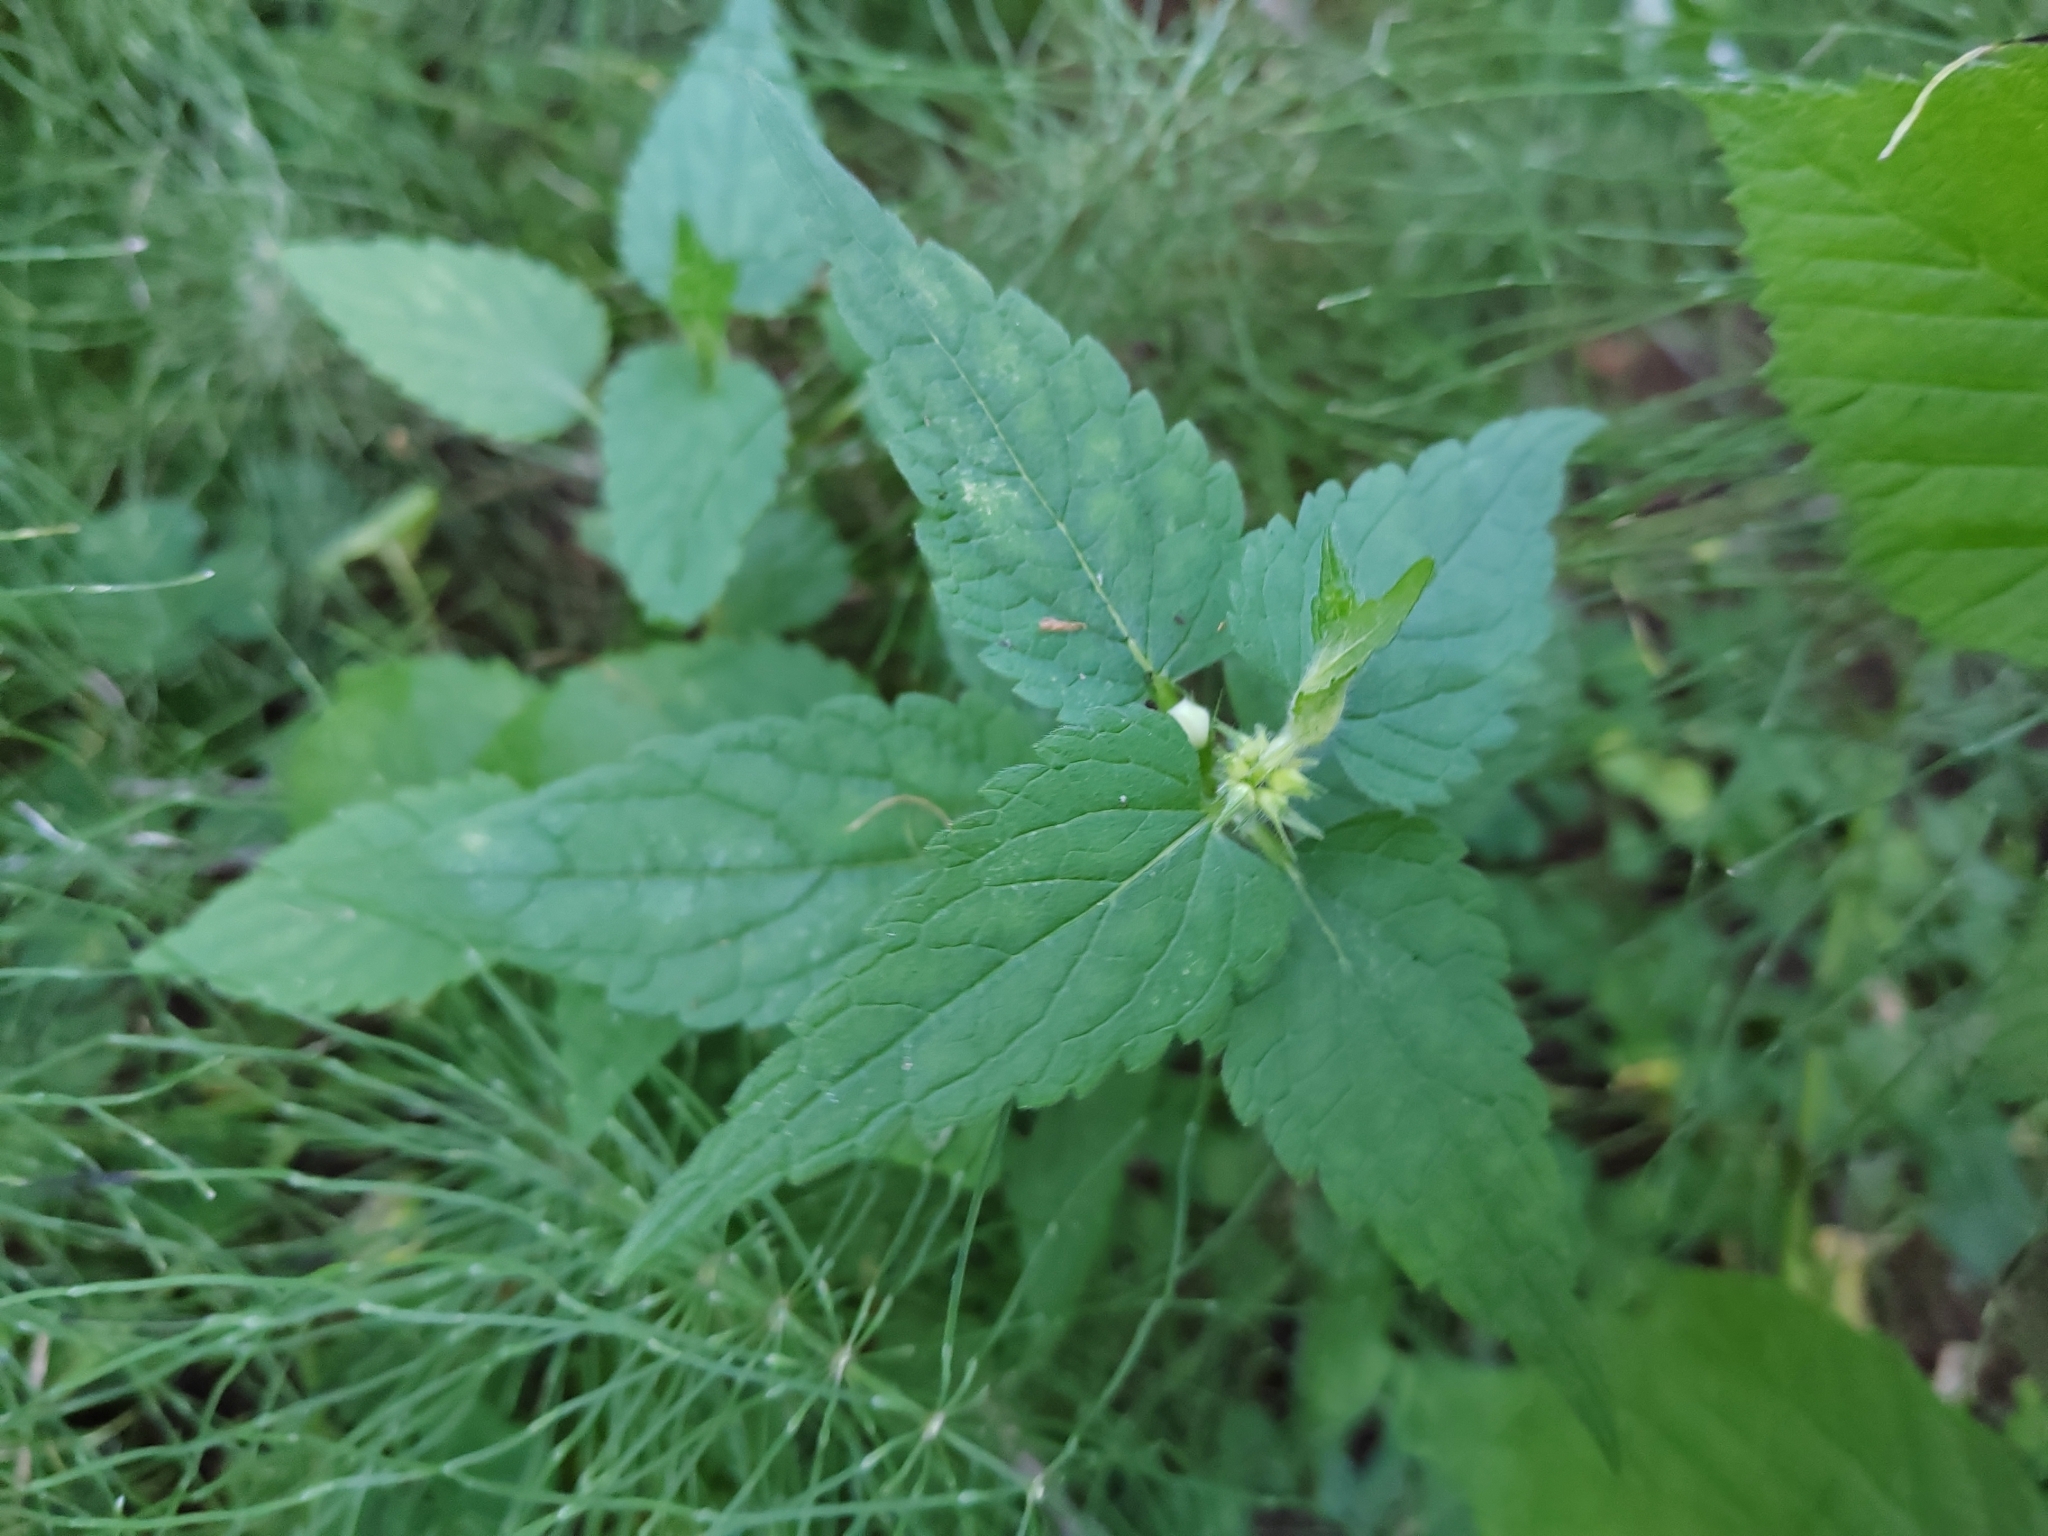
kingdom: Plantae
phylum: Tracheophyta
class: Magnoliopsida
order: Lamiales
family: Lamiaceae
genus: Lamium
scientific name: Lamium album
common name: White dead-nettle
